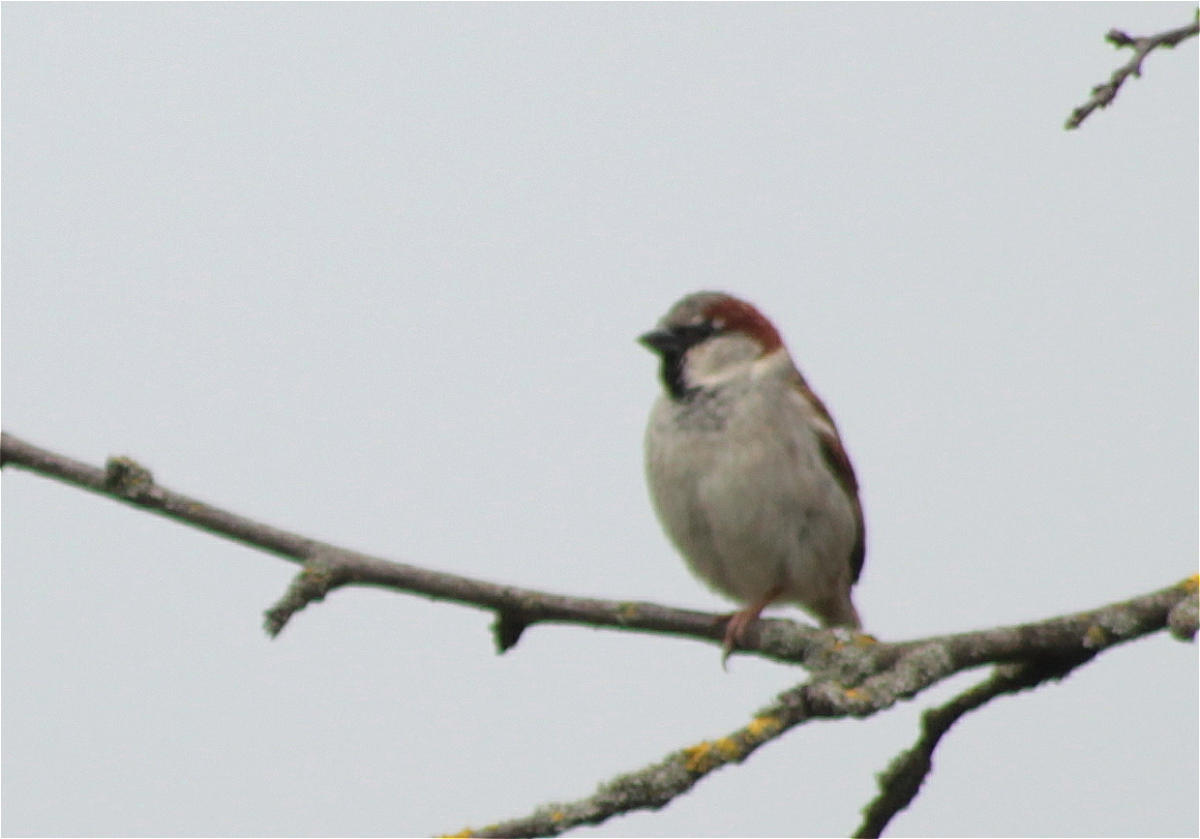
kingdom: Animalia
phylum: Chordata
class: Aves
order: Passeriformes
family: Passeridae
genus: Passer
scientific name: Passer domesticus
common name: House sparrow
